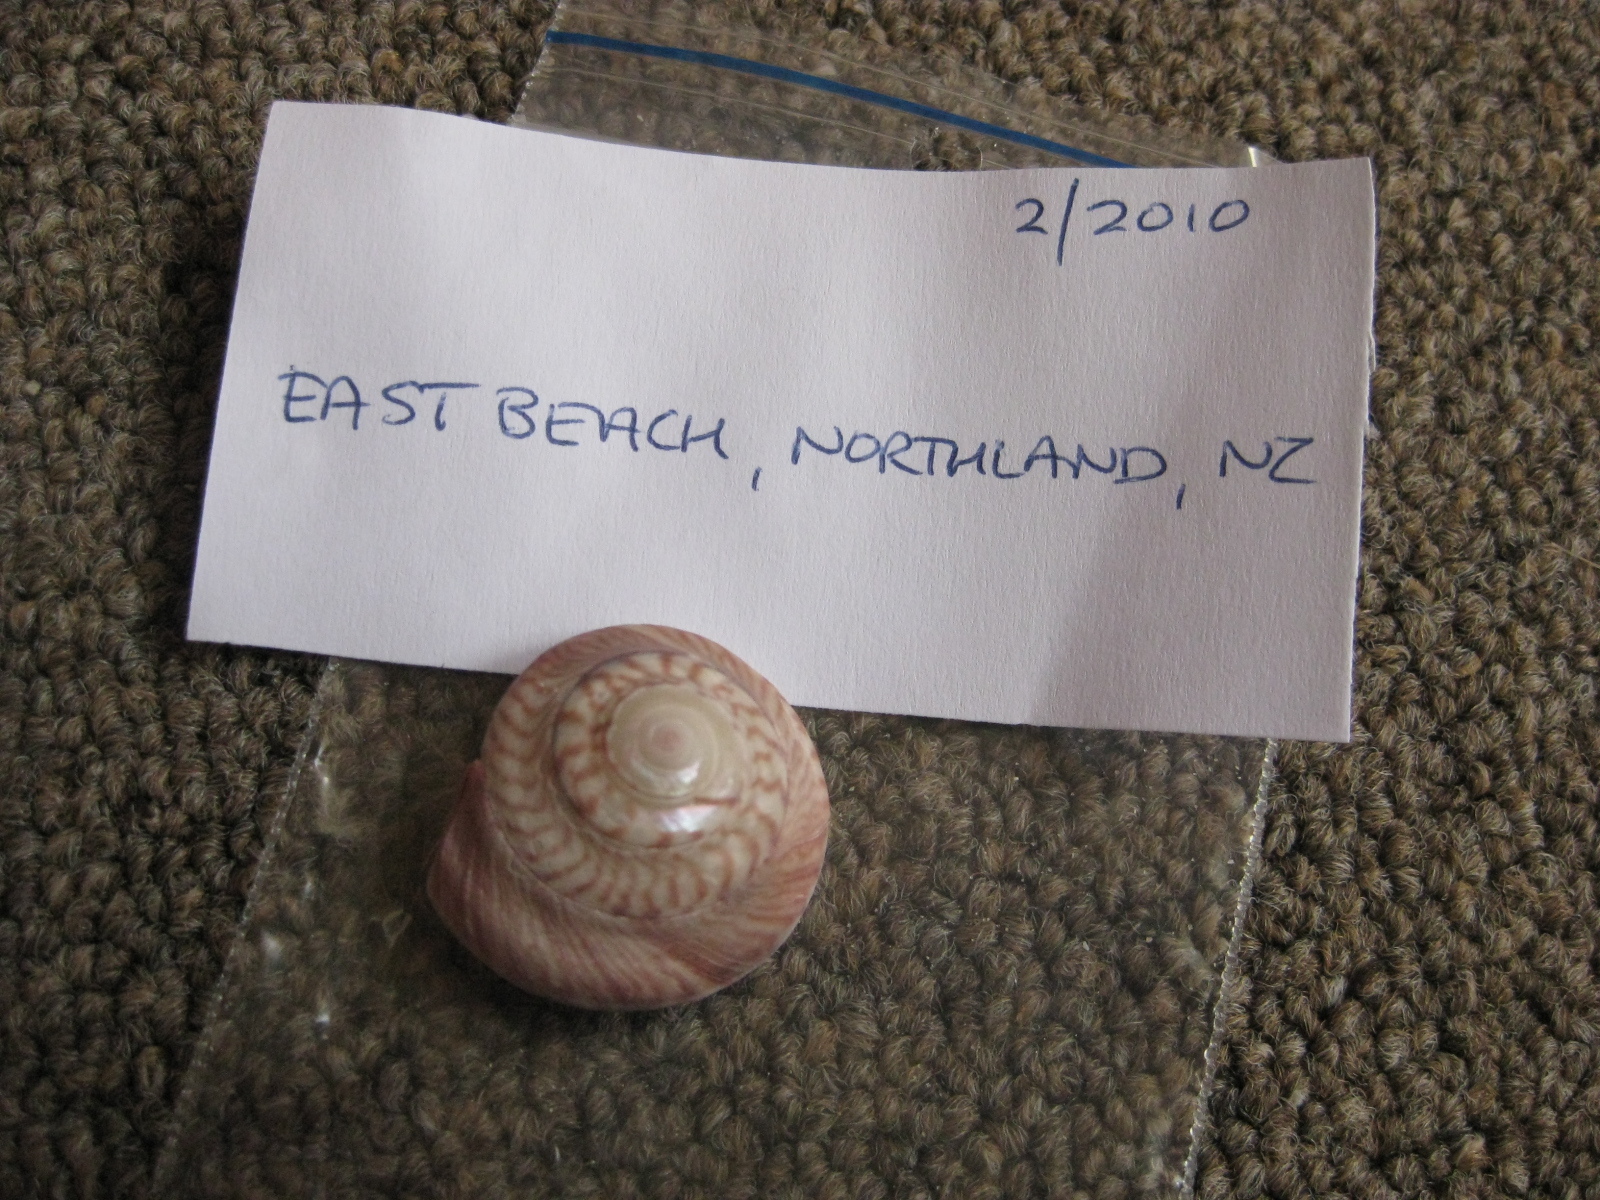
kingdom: Animalia
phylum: Mollusca
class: Gastropoda
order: Trochida
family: Trochidae
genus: Zethalia
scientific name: Zethalia zelandica
